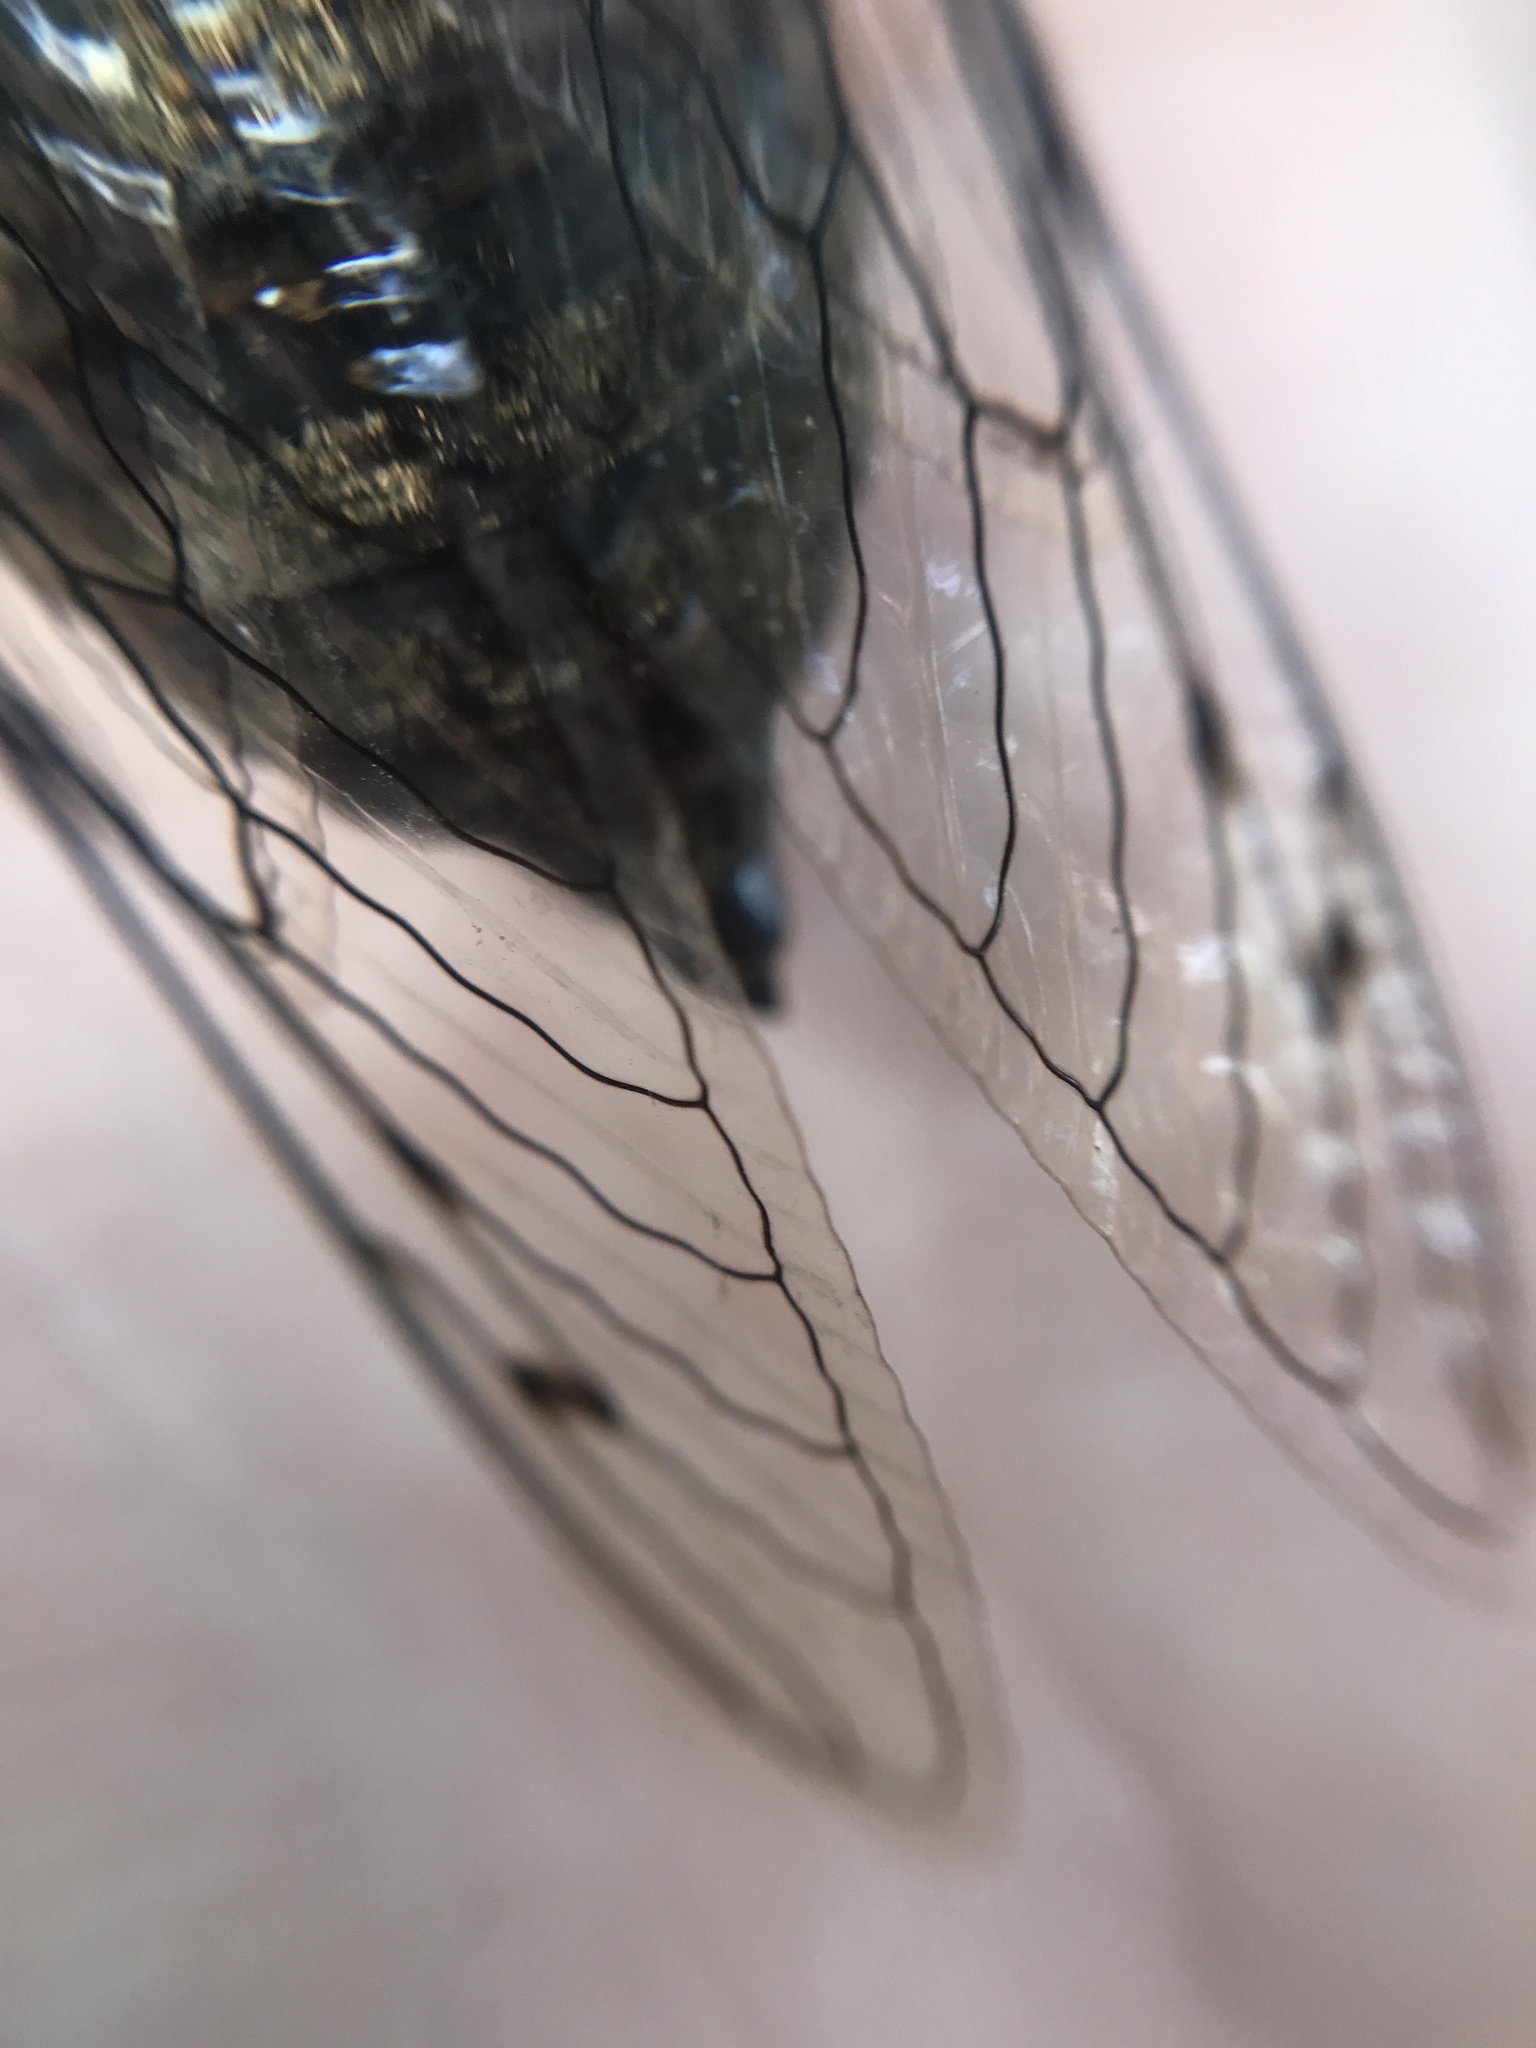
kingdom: Animalia
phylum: Arthropoda
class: Insecta
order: Hemiptera
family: Cicadidae
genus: Quesada
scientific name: Quesada gigas
